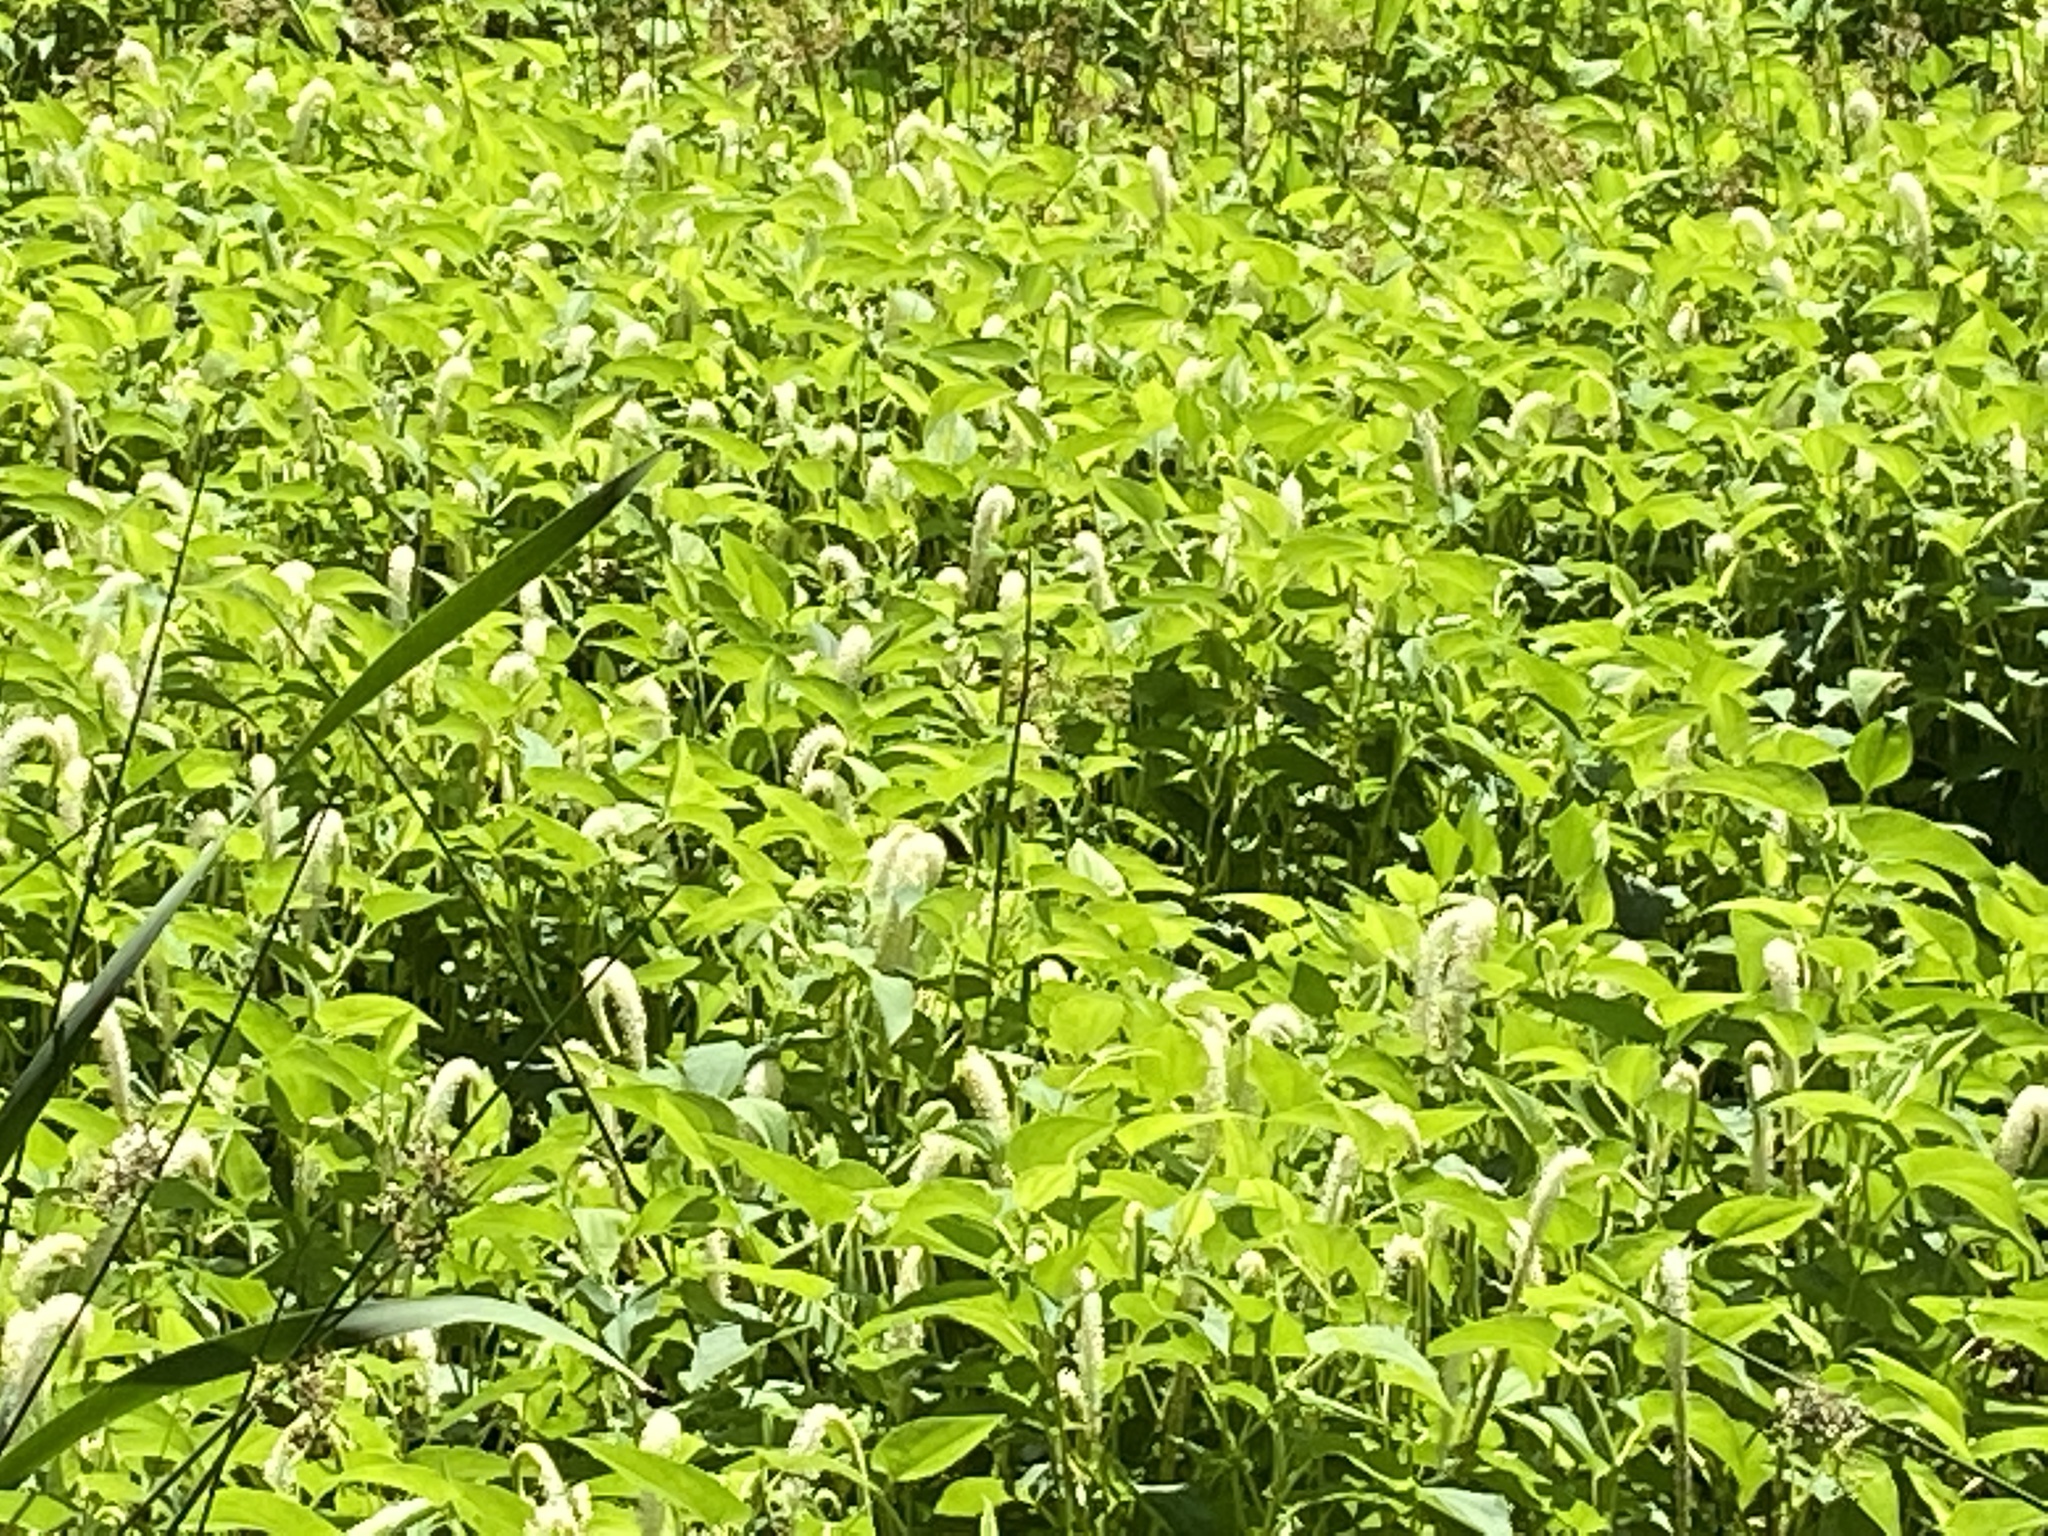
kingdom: Plantae
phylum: Tracheophyta
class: Magnoliopsida
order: Piperales
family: Saururaceae
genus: Saururus
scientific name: Saururus cernuus
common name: Lizard's-tail
